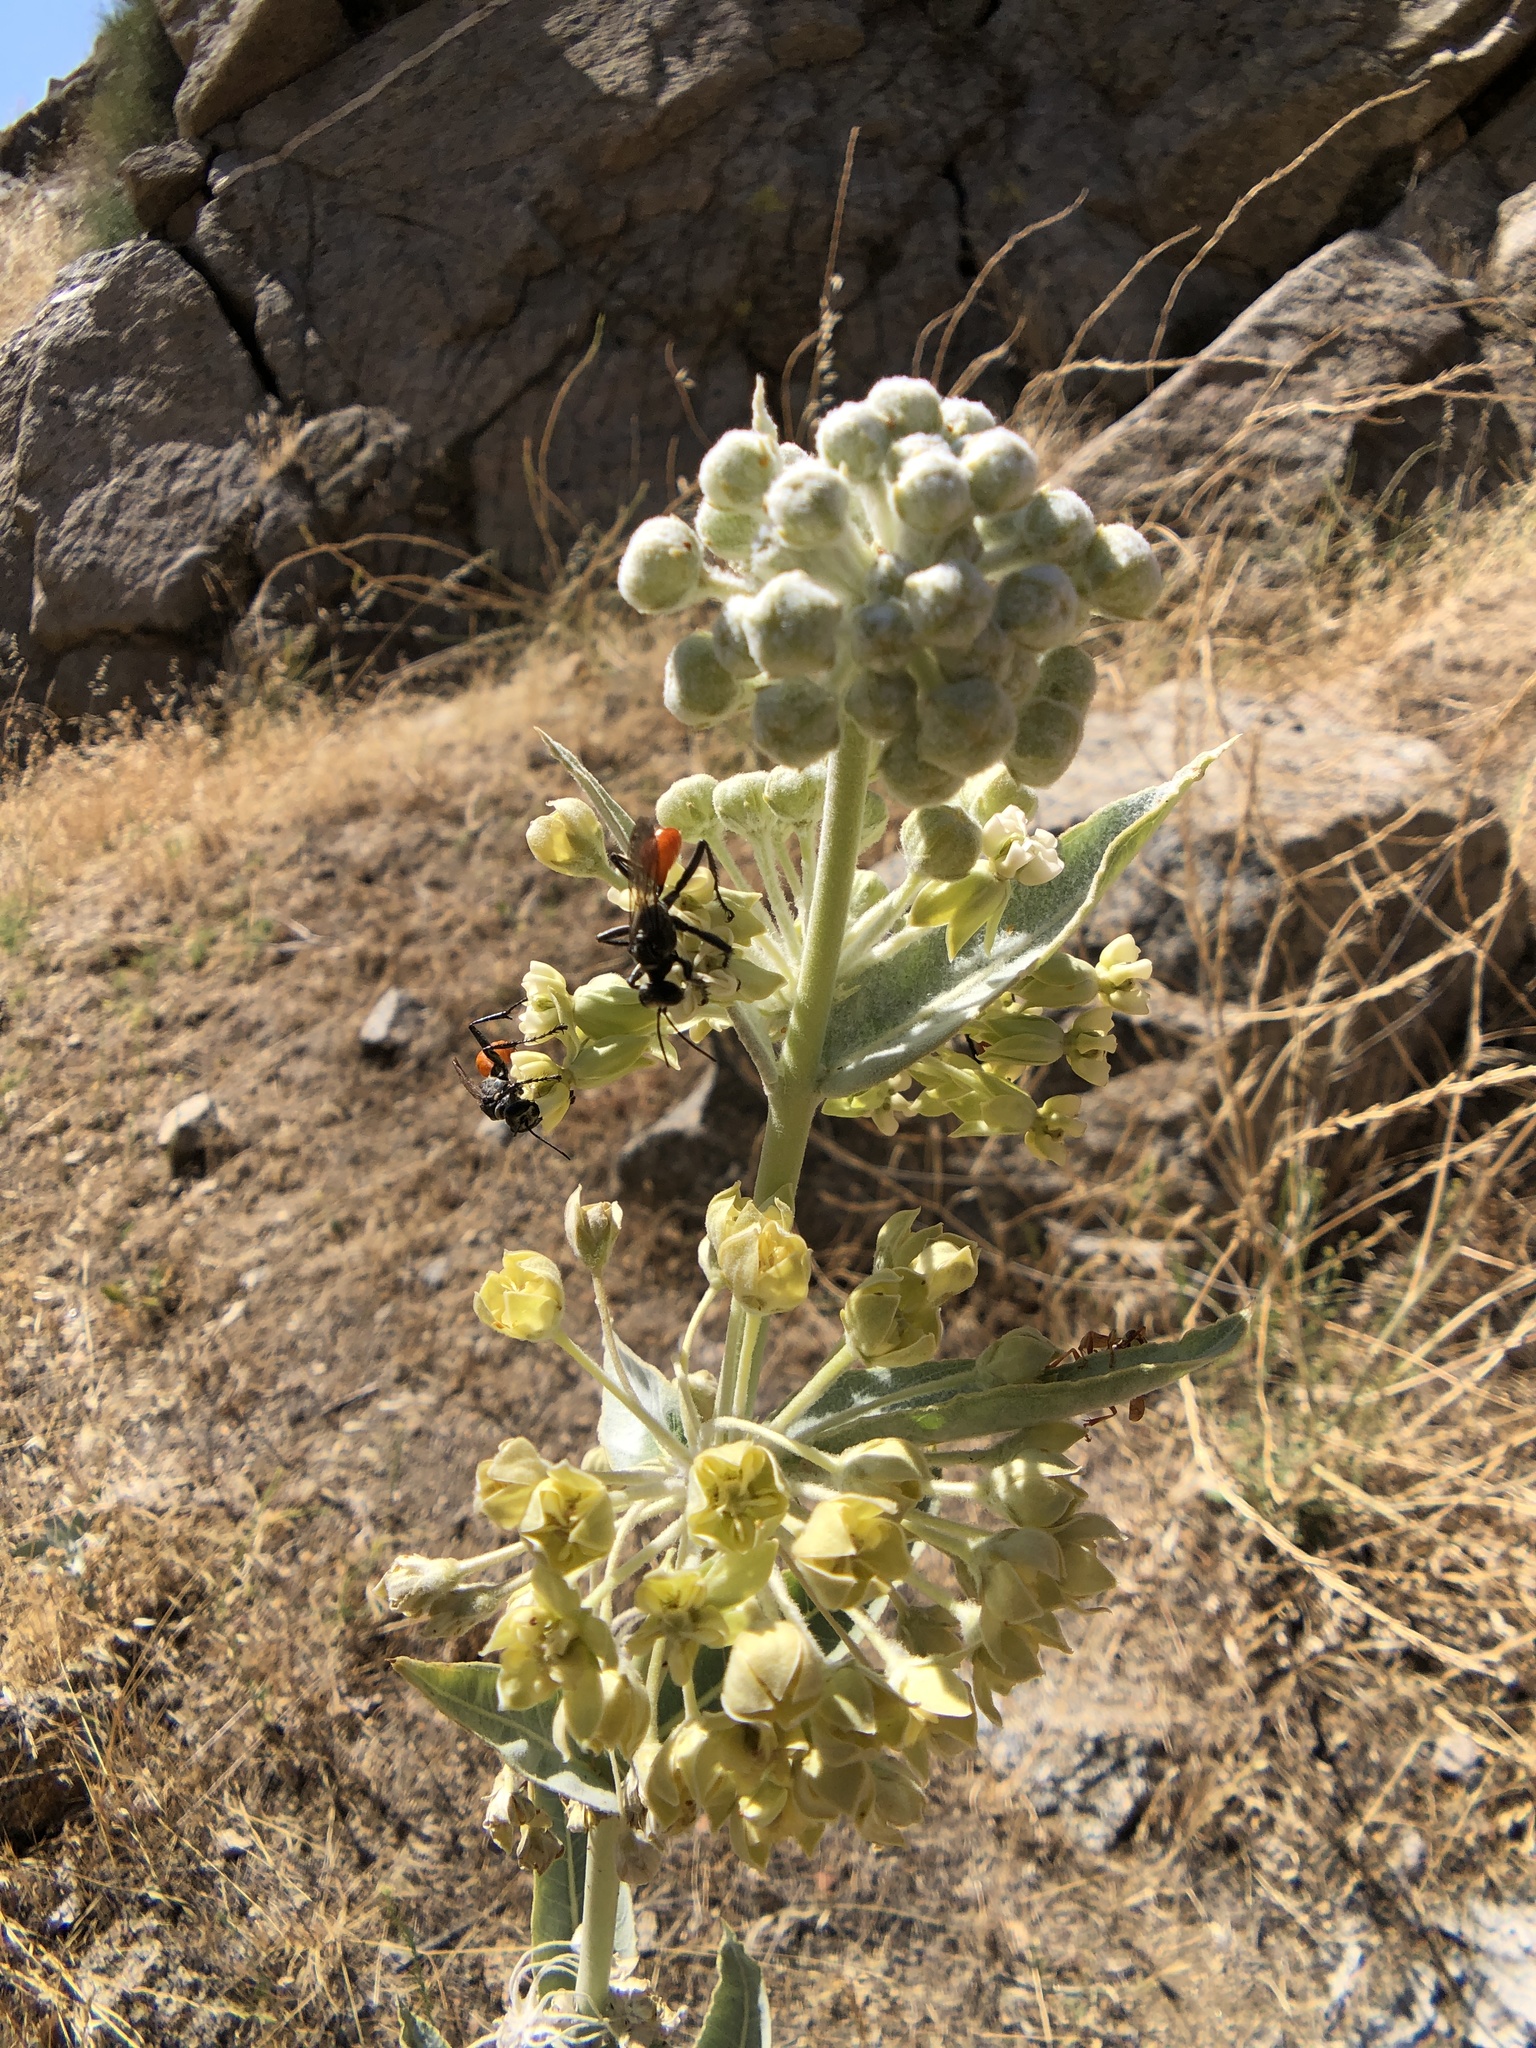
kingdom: Plantae
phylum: Tracheophyta
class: Magnoliopsida
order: Gentianales
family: Apocynaceae
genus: Asclepias
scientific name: Asclepias erosa
